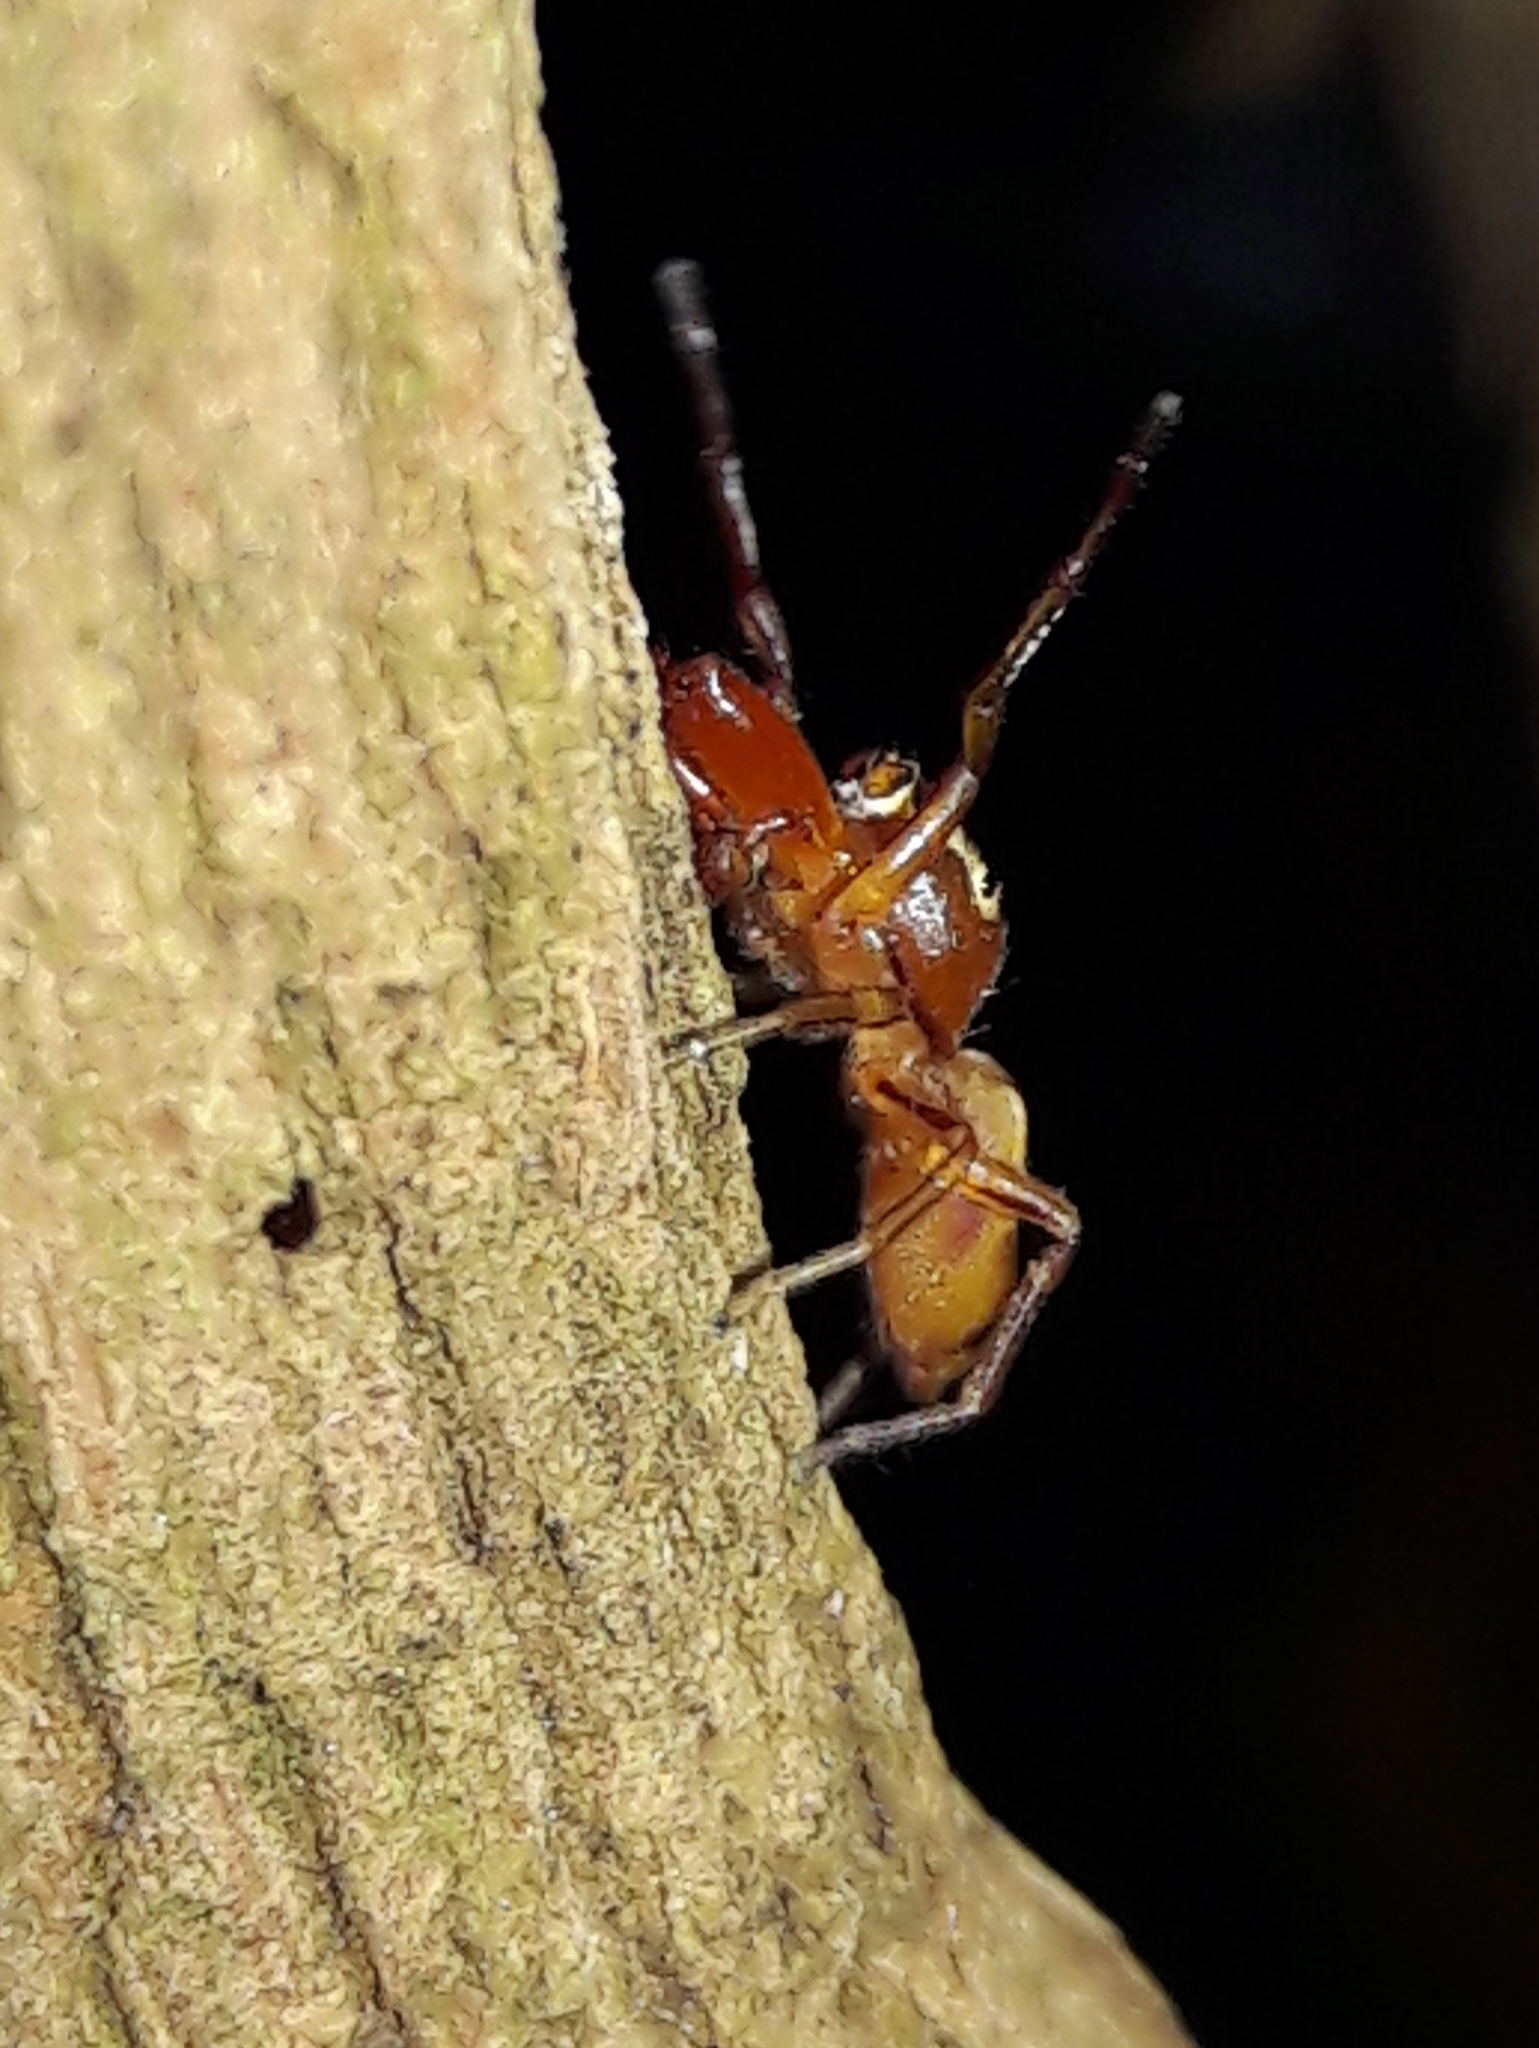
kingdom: Animalia
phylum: Arthropoda
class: Arachnida
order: Araneae
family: Salticidae
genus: Gypogyna
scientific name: Gypogyna forceps
